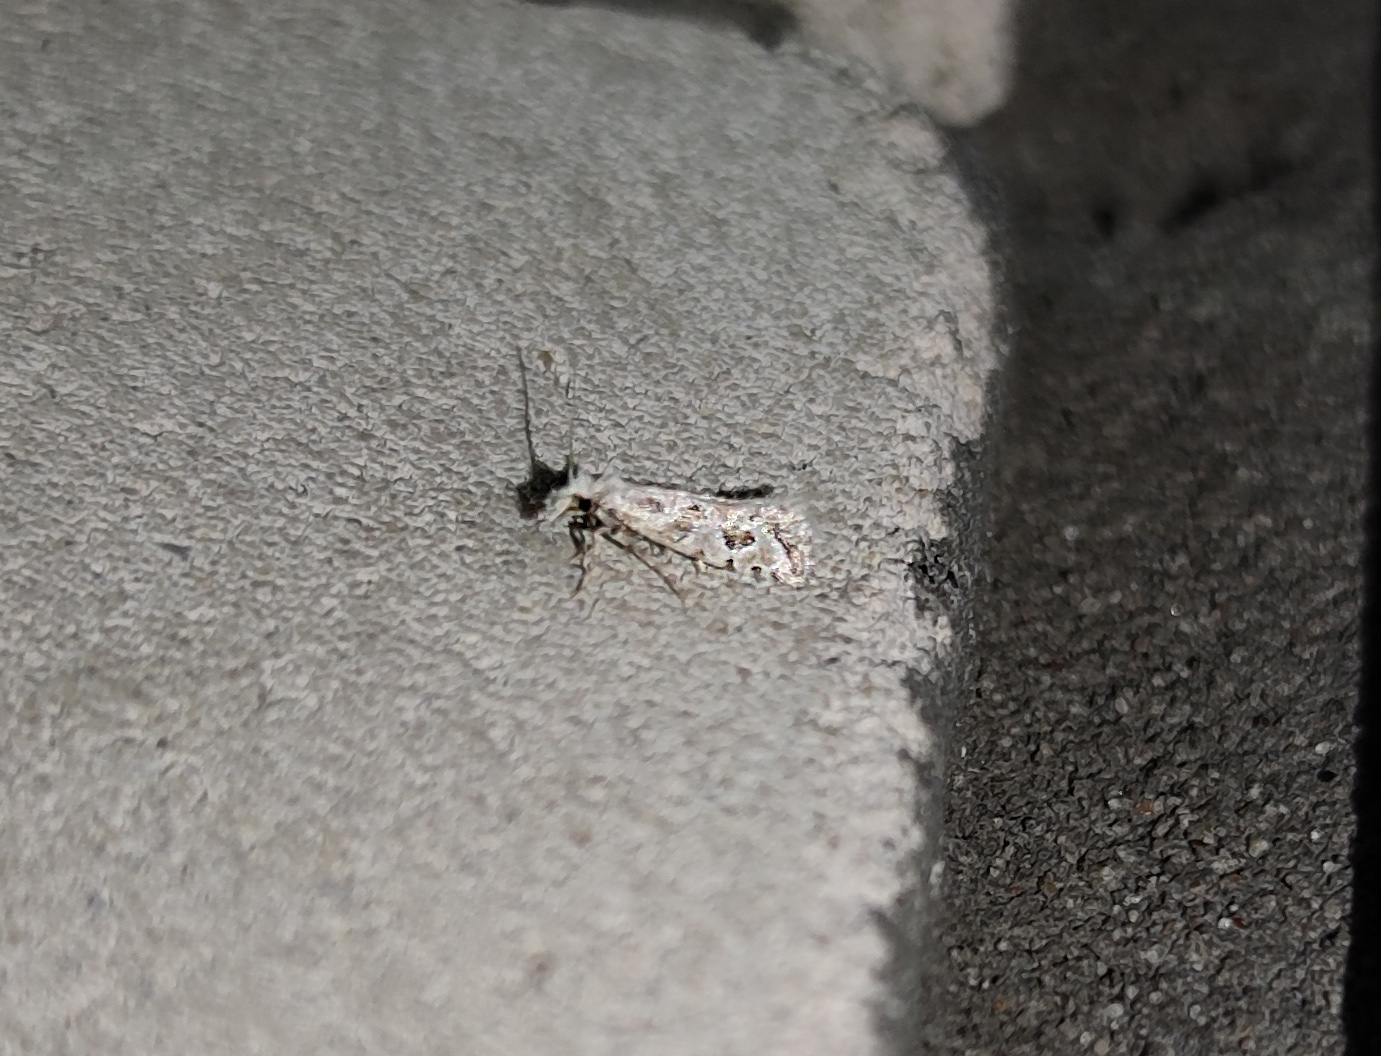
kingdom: Animalia
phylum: Arthropoda
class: Insecta
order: Lepidoptera
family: Tineidae
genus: Ateliotum
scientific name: Ateliotum hungaricellum
